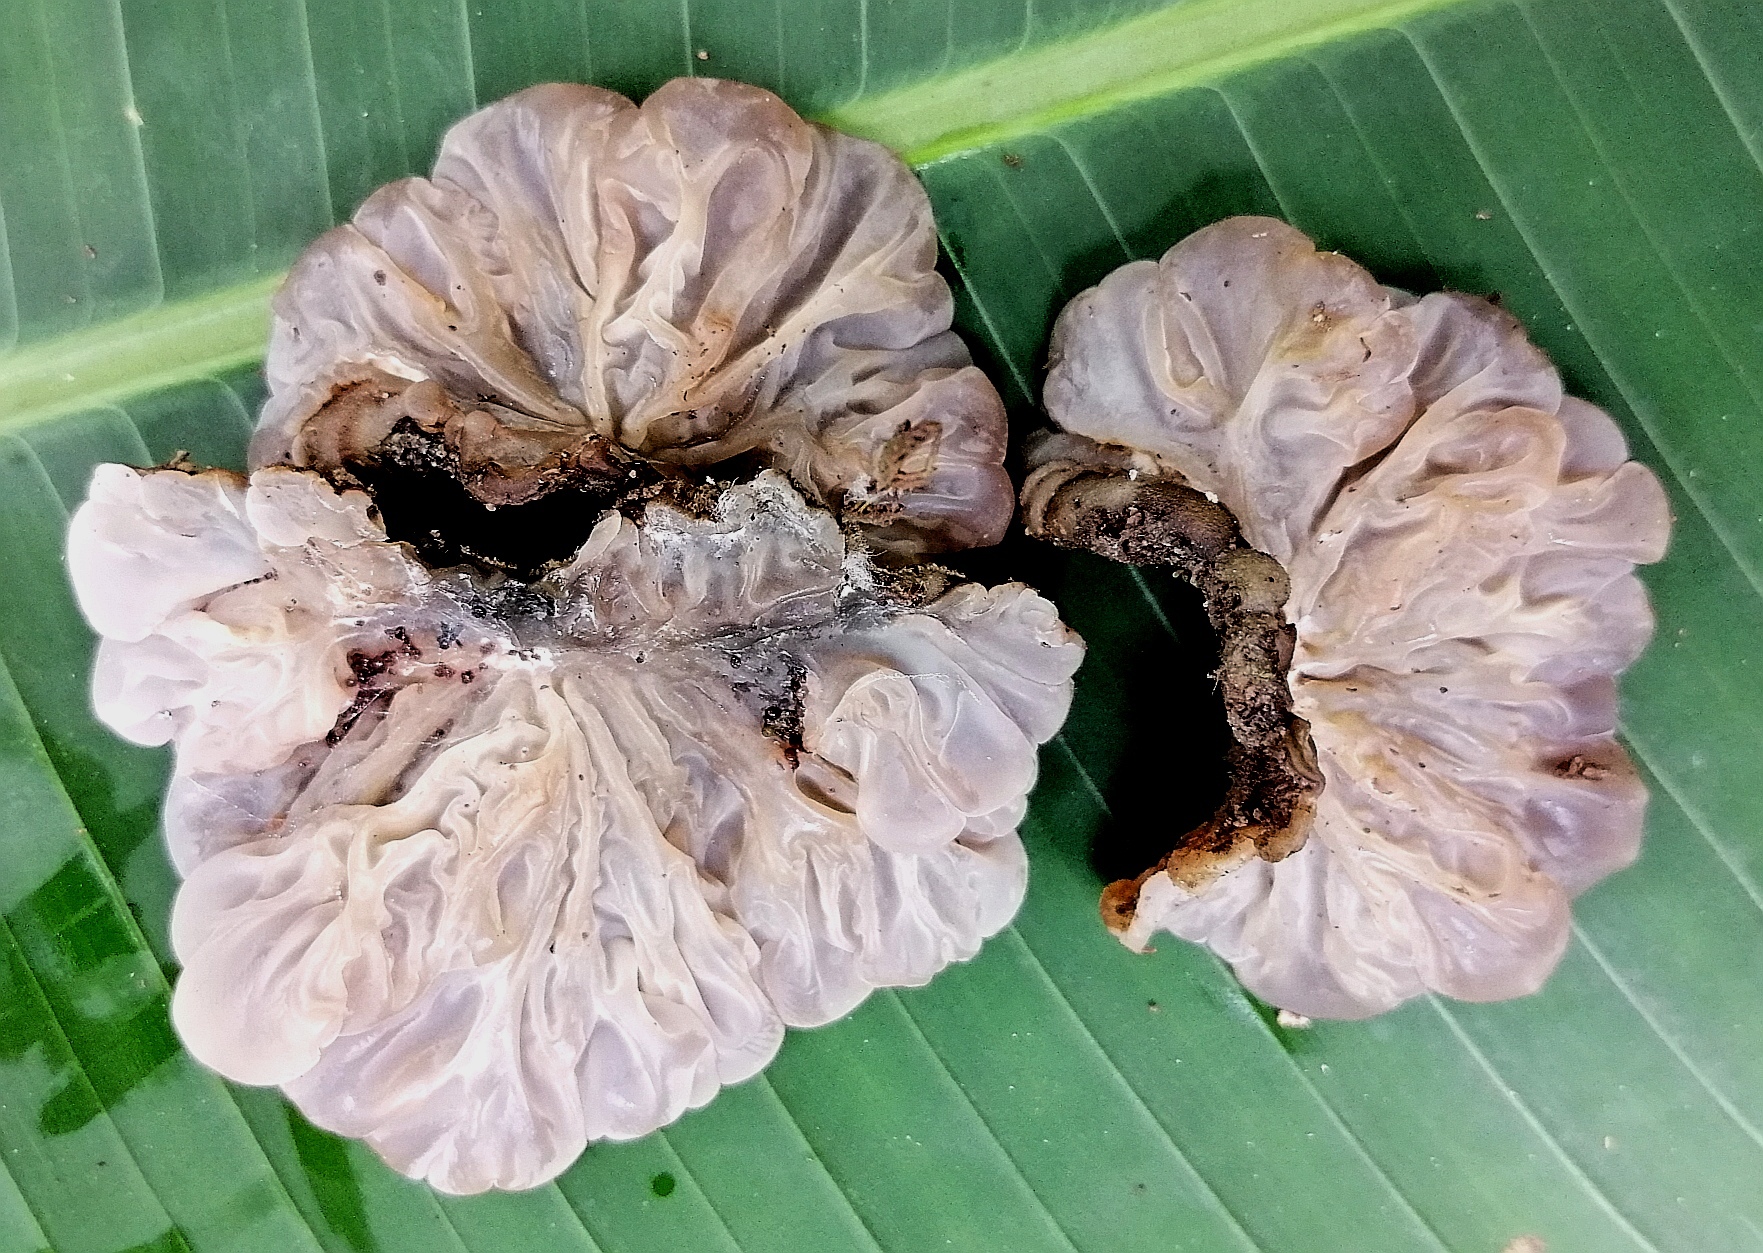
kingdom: Fungi
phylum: Basidiomycota
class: Agaricomycetes
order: Auriculariales
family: Auriculariaceae
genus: Auricularia
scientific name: Auricularia brasiliana
